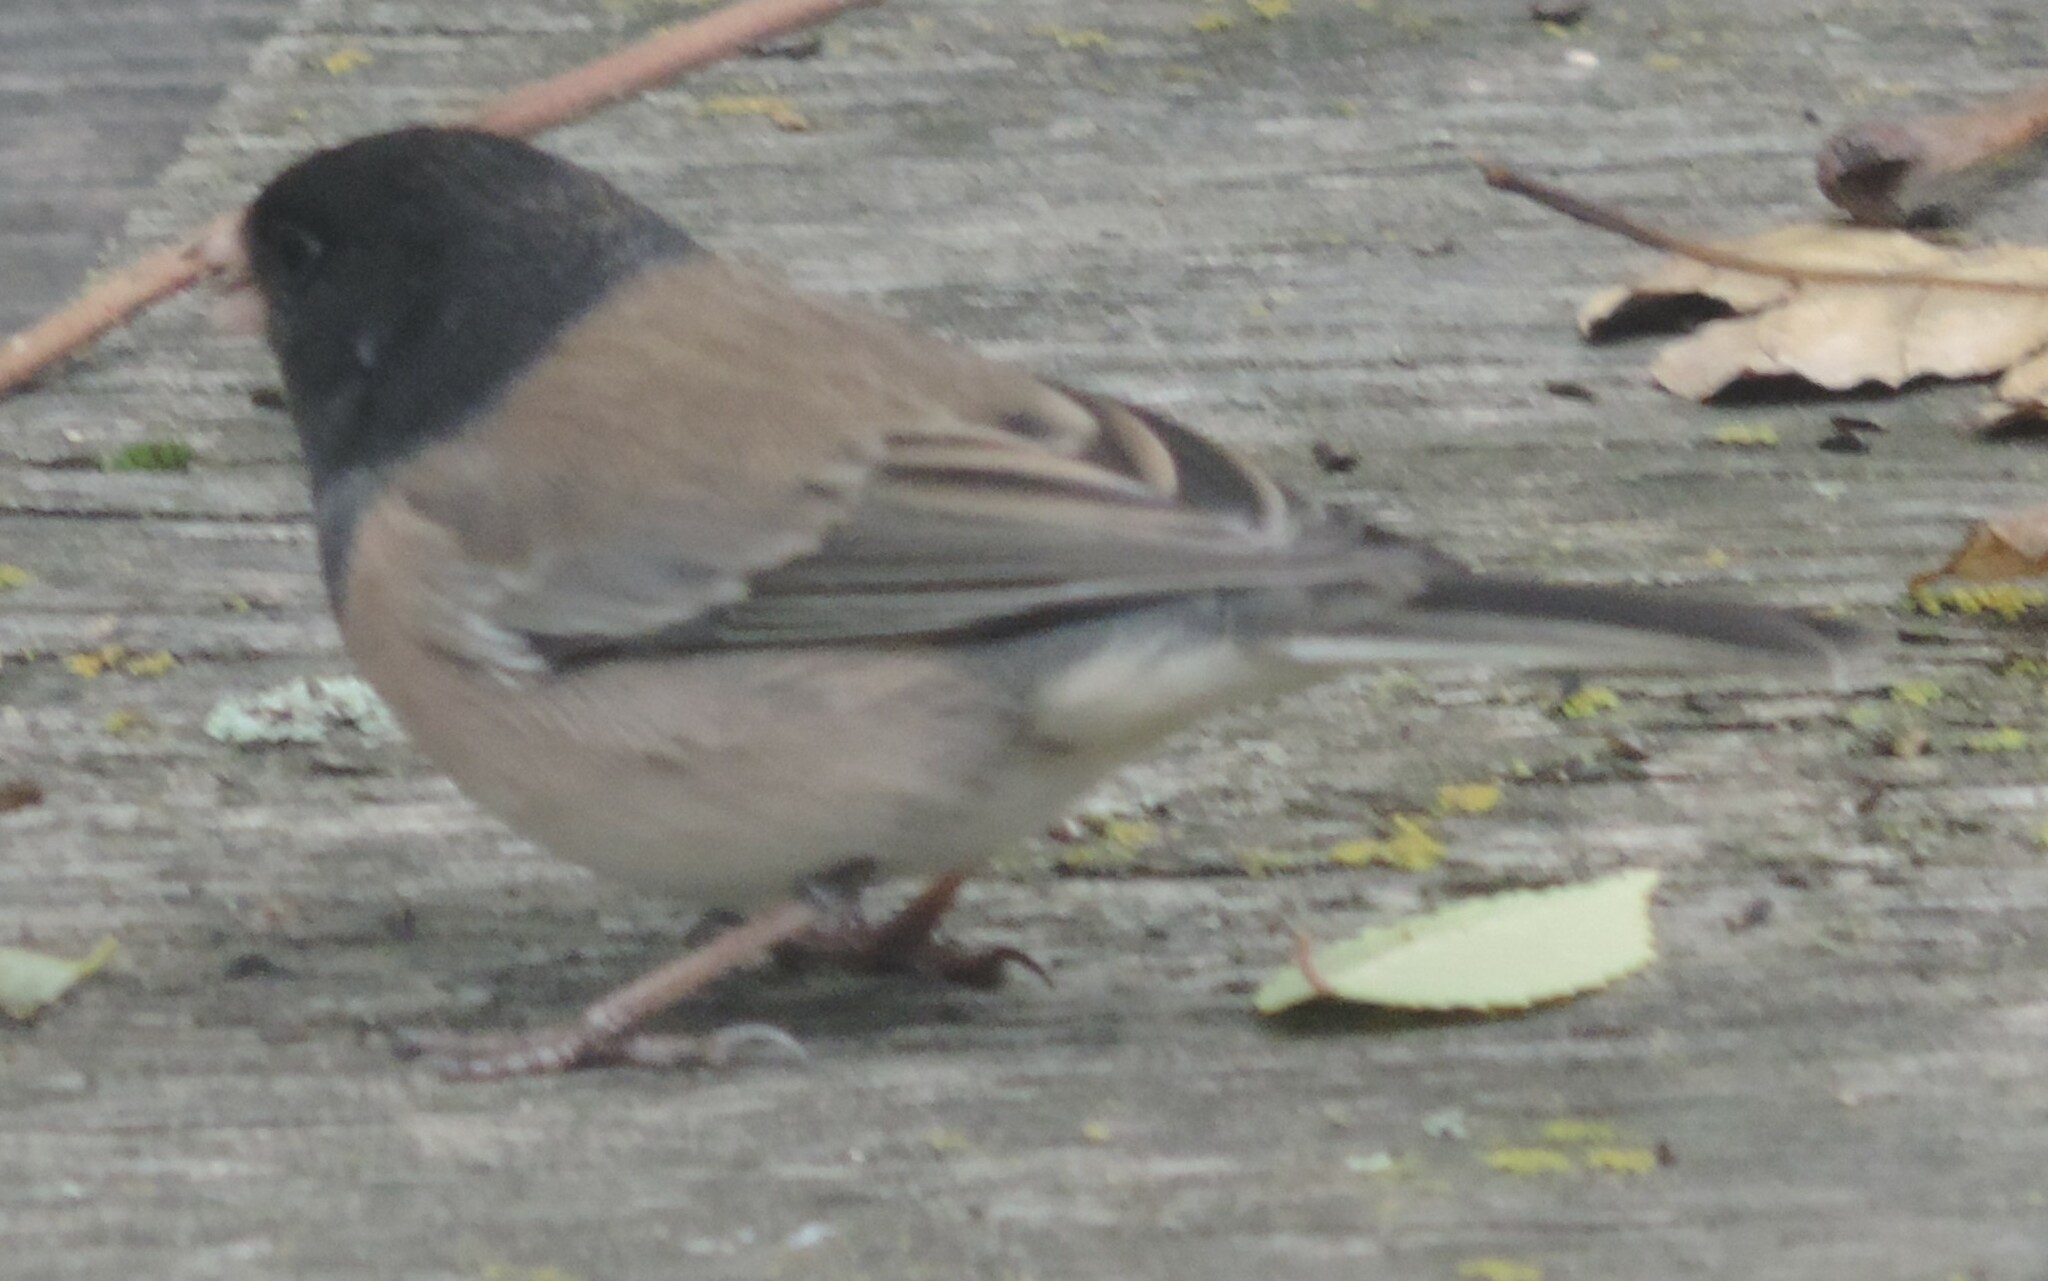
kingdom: Animalia
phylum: Chordata
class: Aves
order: Passeriformes
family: Passerellidae
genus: Junco
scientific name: Junco hyemalis
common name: Dark-eyed junco
